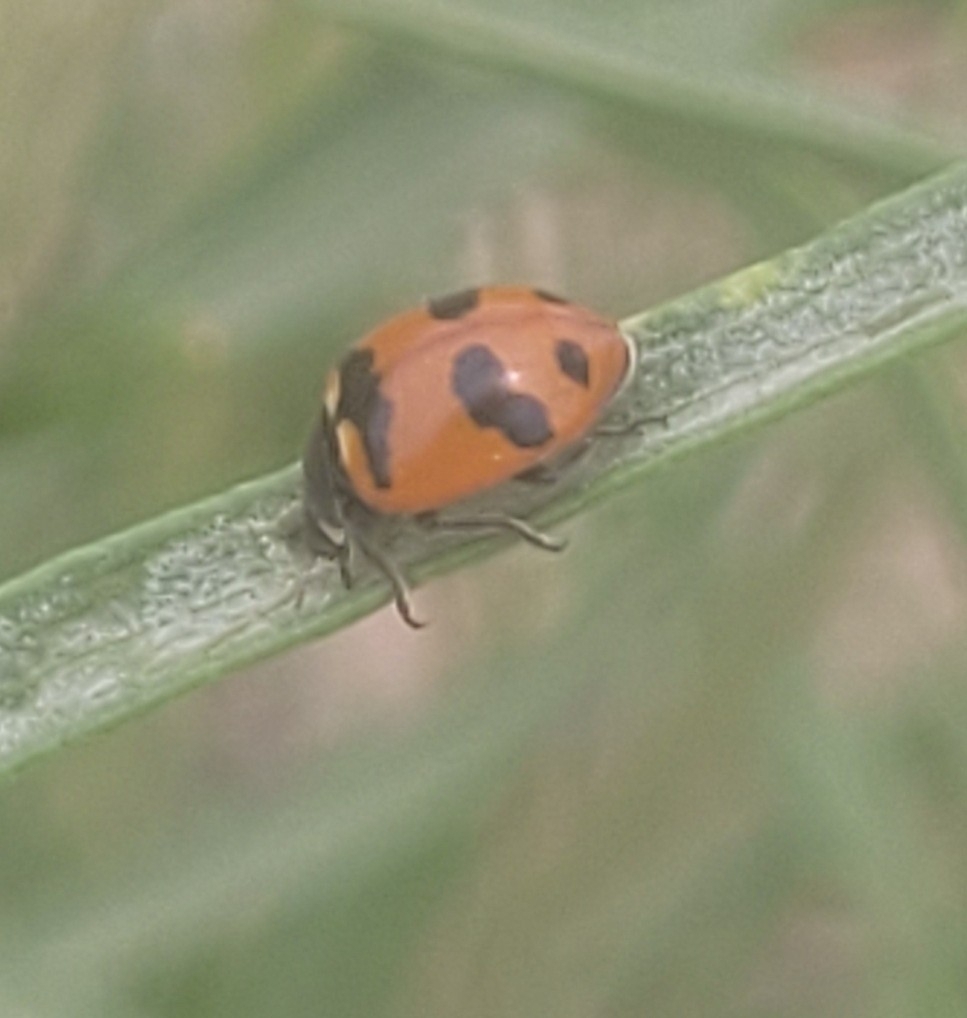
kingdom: Animalia
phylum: Arthropoda
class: Insecta
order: Coleoptera
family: Coccinellidae
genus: Coccinella
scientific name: Coccinella transversoguttata
